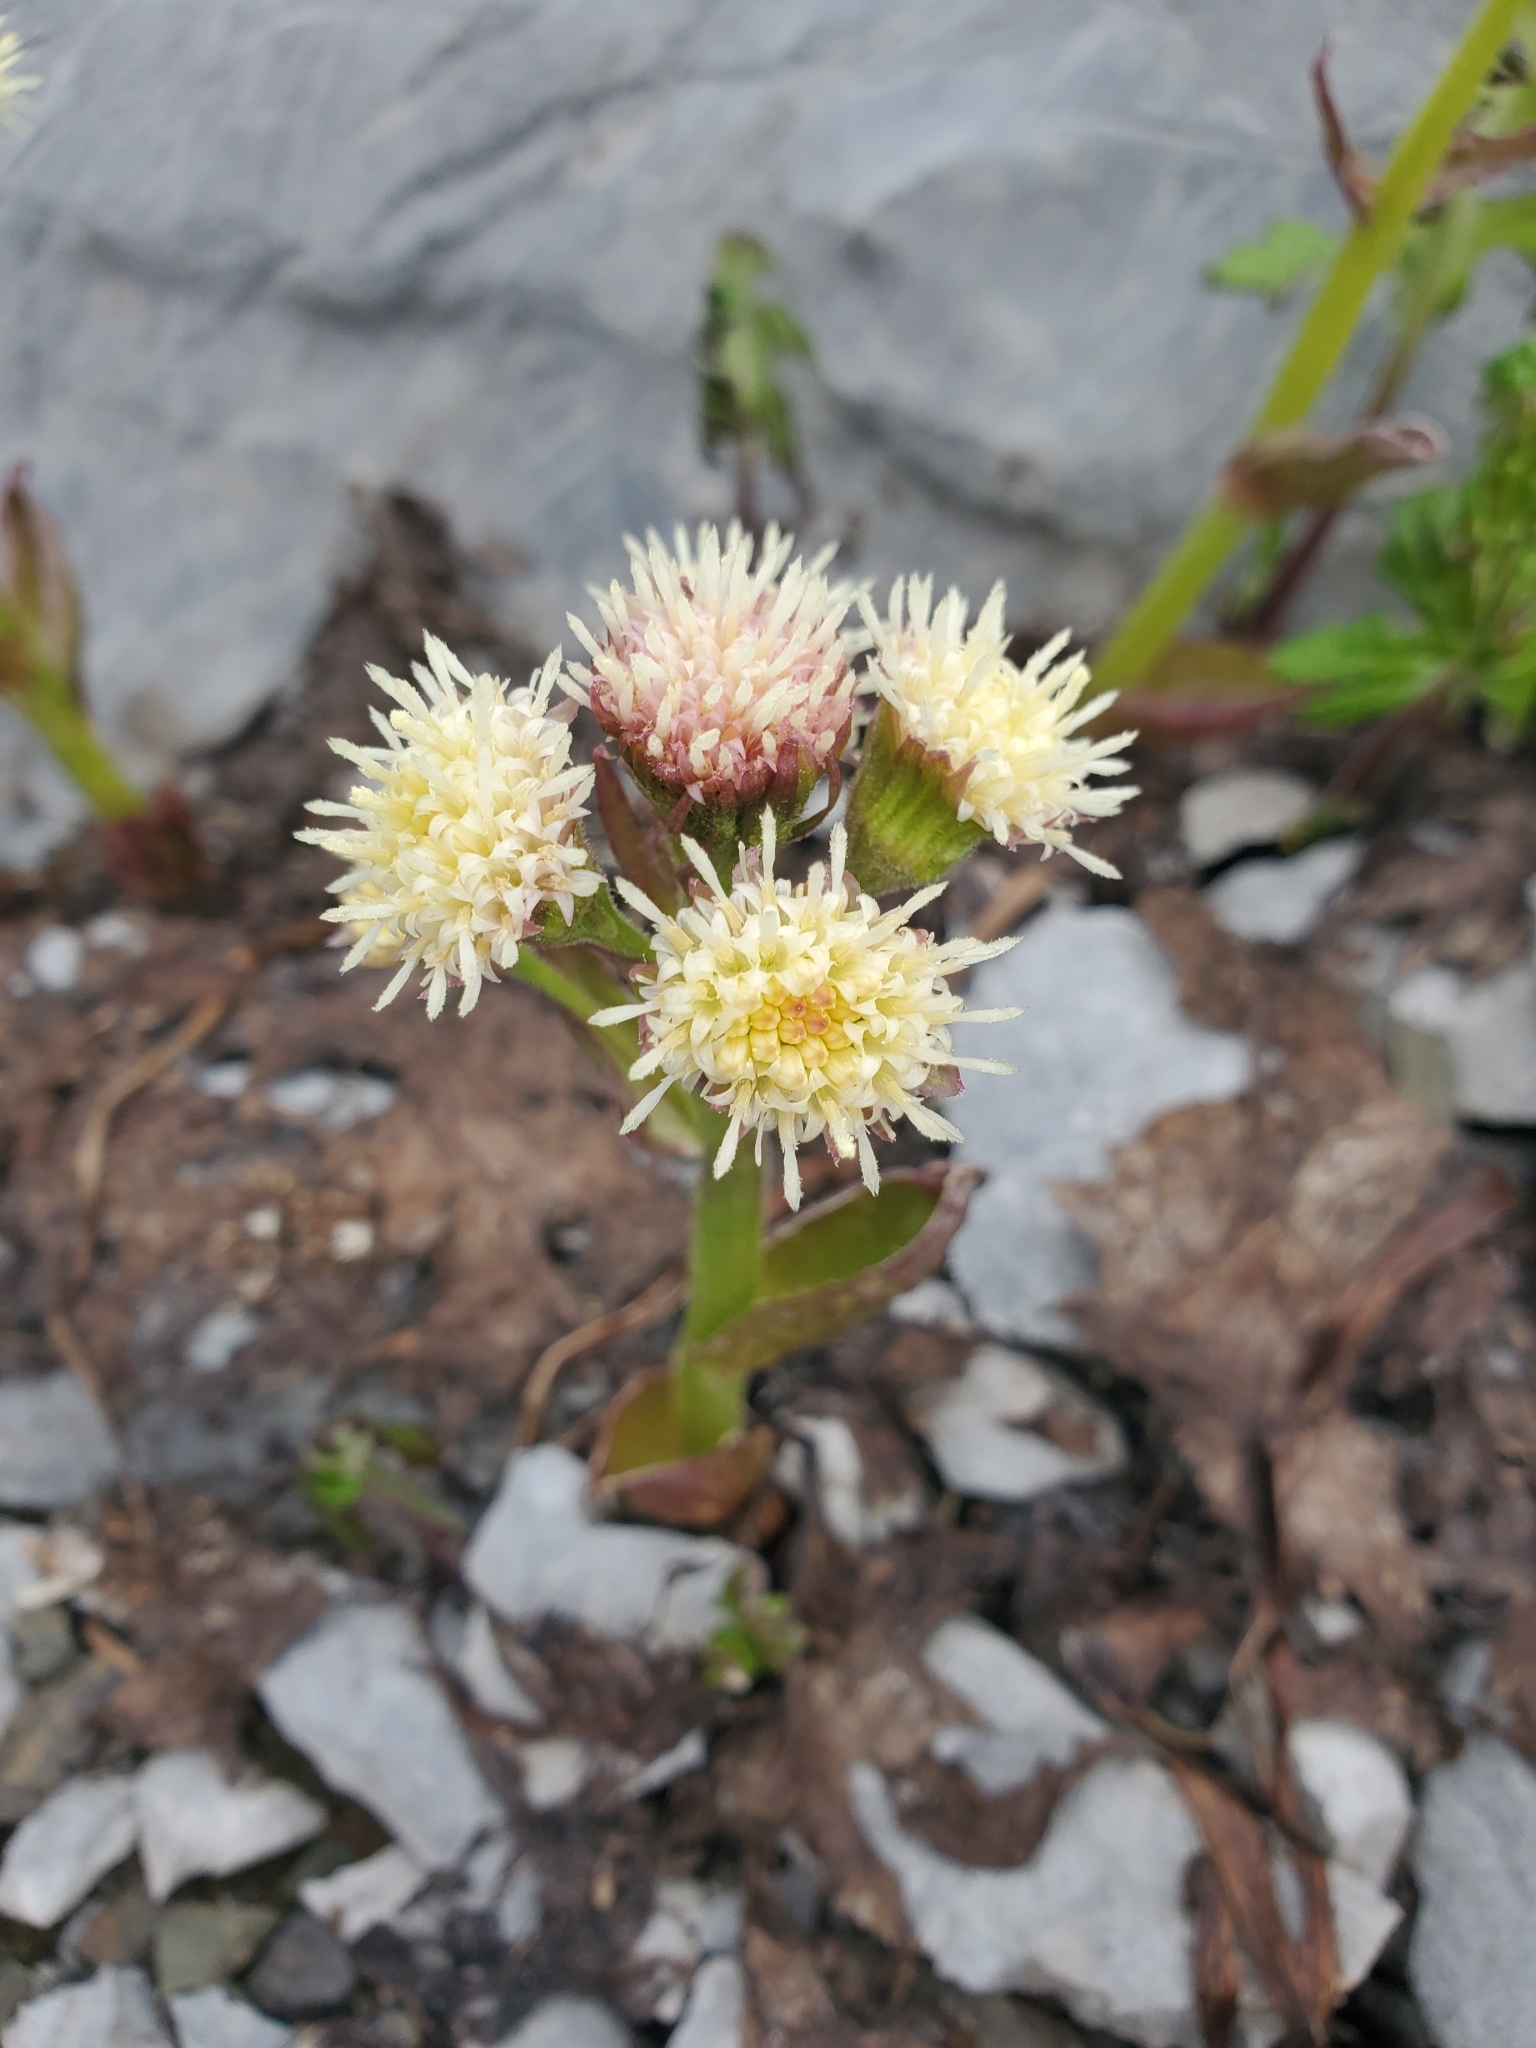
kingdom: Plantae
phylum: Tracheophyta
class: Magnoliopsida
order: Asterales
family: Asteraceae
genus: Petasites
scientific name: Petasites frigidus
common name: Arctic butterbur
